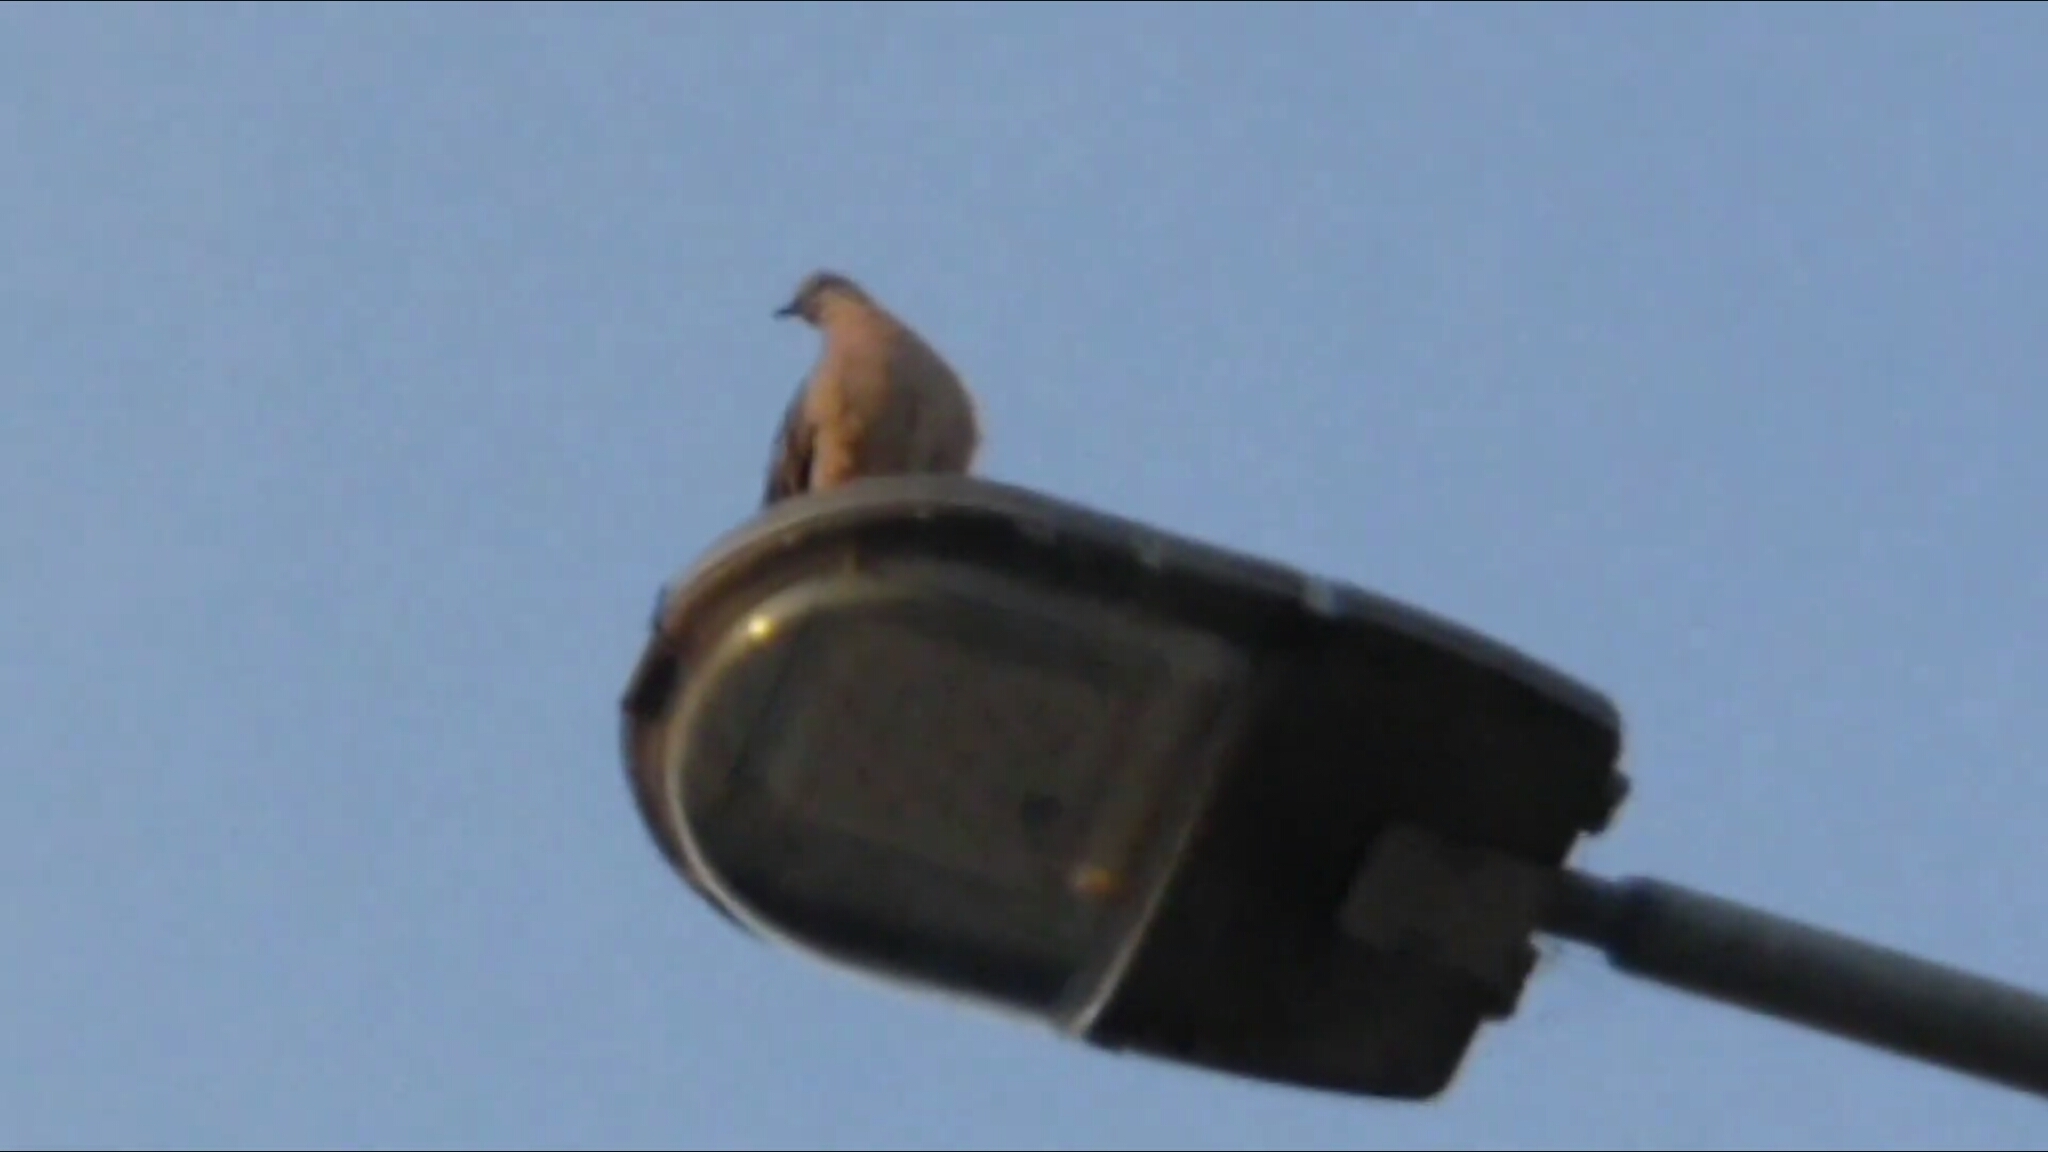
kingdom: Animalia
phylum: Chordata
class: Aves
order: Columbiformes
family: Columbidae
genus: Spilopelia
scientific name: Spilopelia chinensis
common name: Spotted dove
